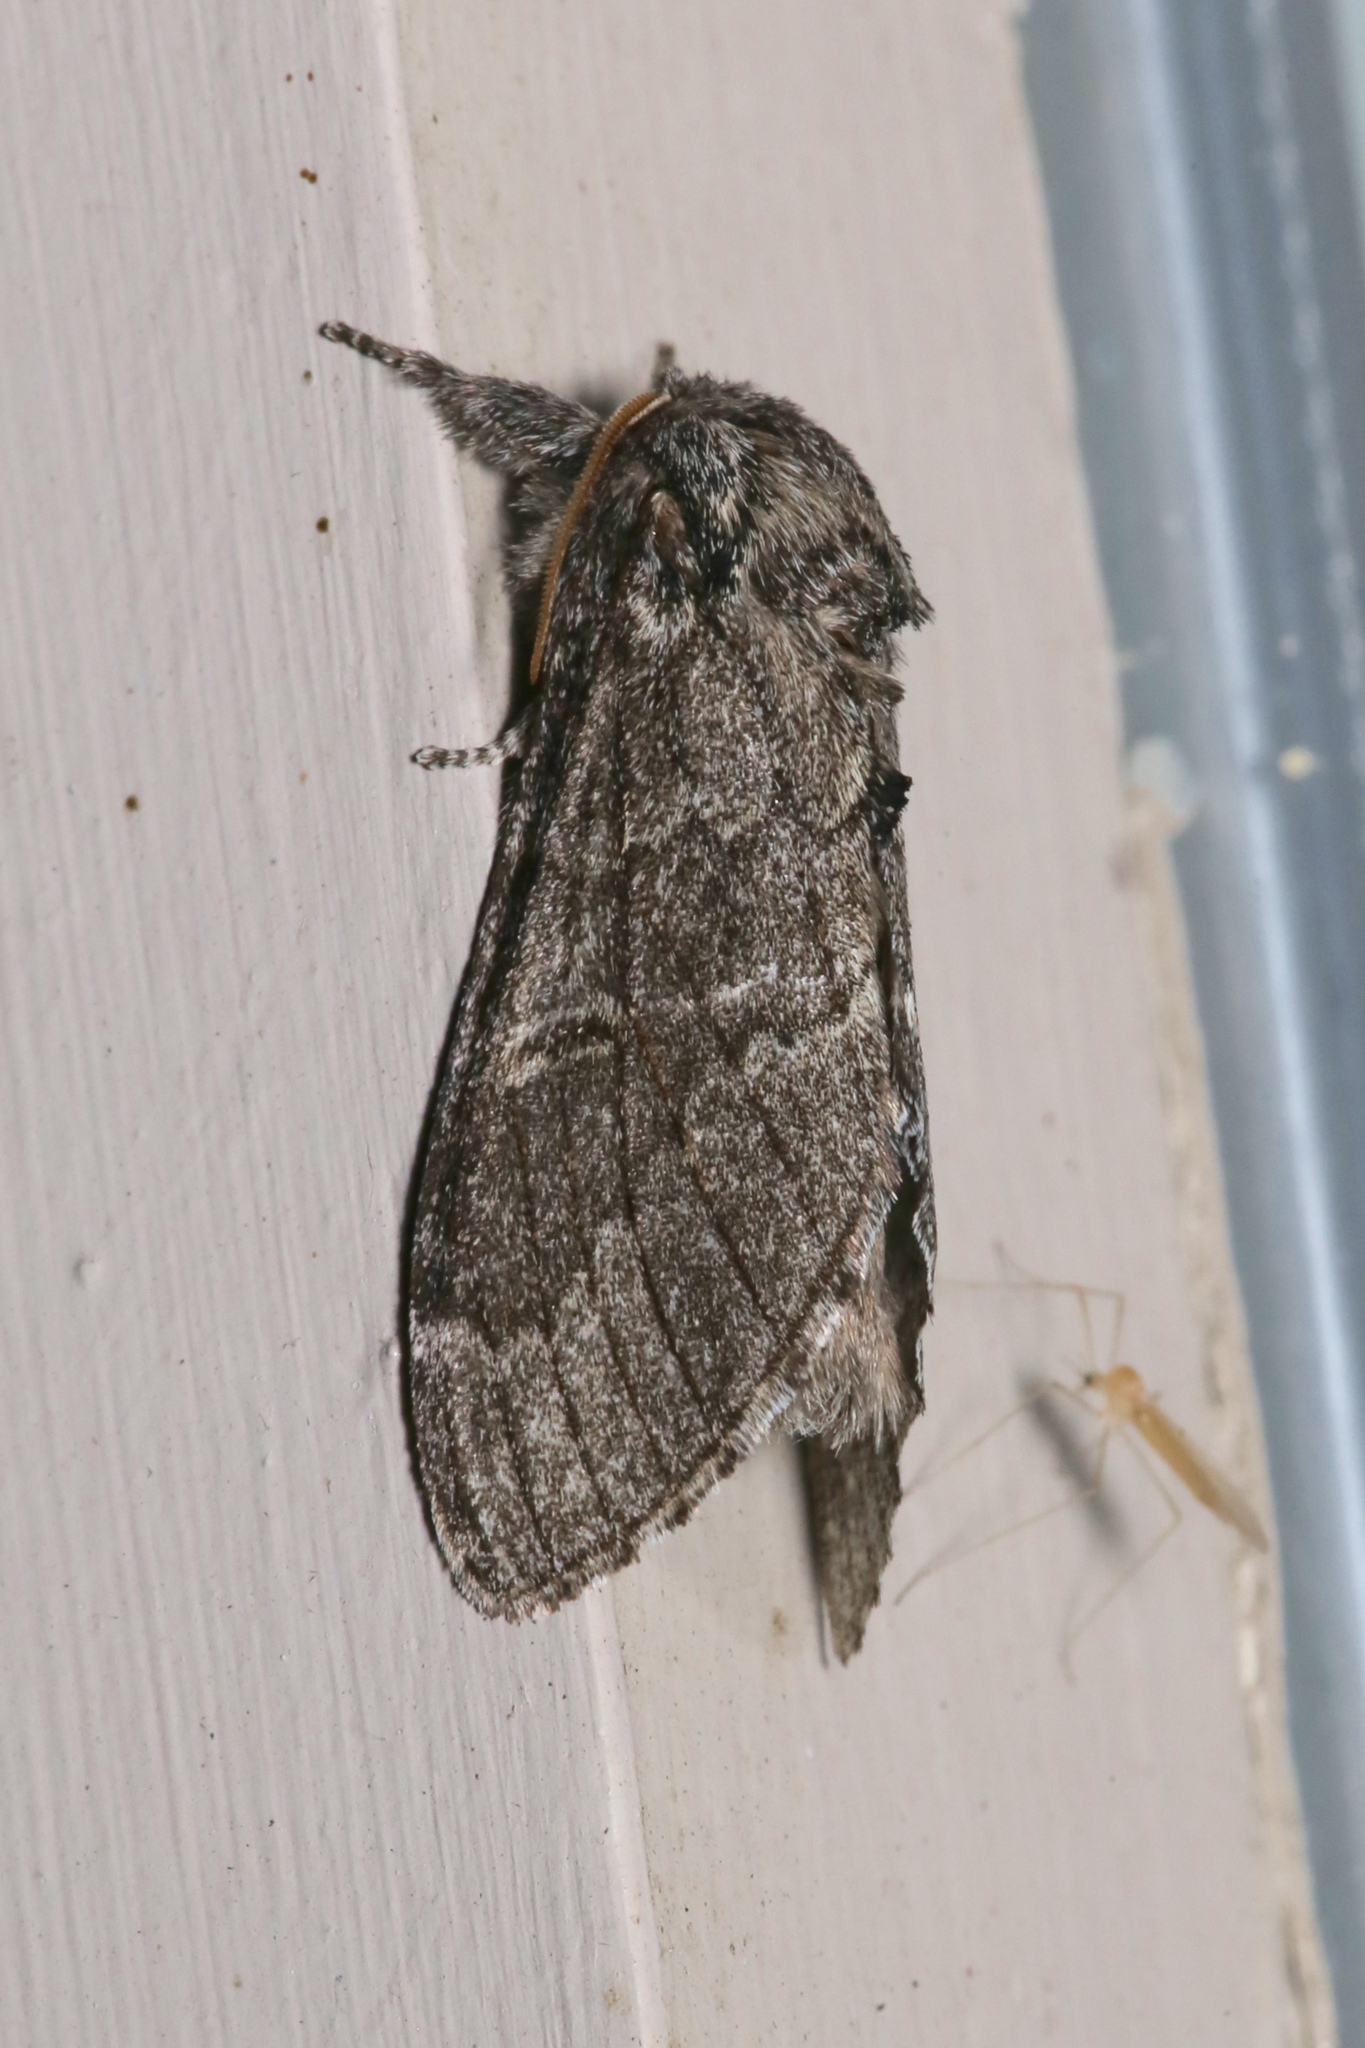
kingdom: Animalia
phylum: Arthropoda
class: Insecta
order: Lepidoptera
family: Notodontidae
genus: Notodonta
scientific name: Notodonta torva
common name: Large dark prominent
